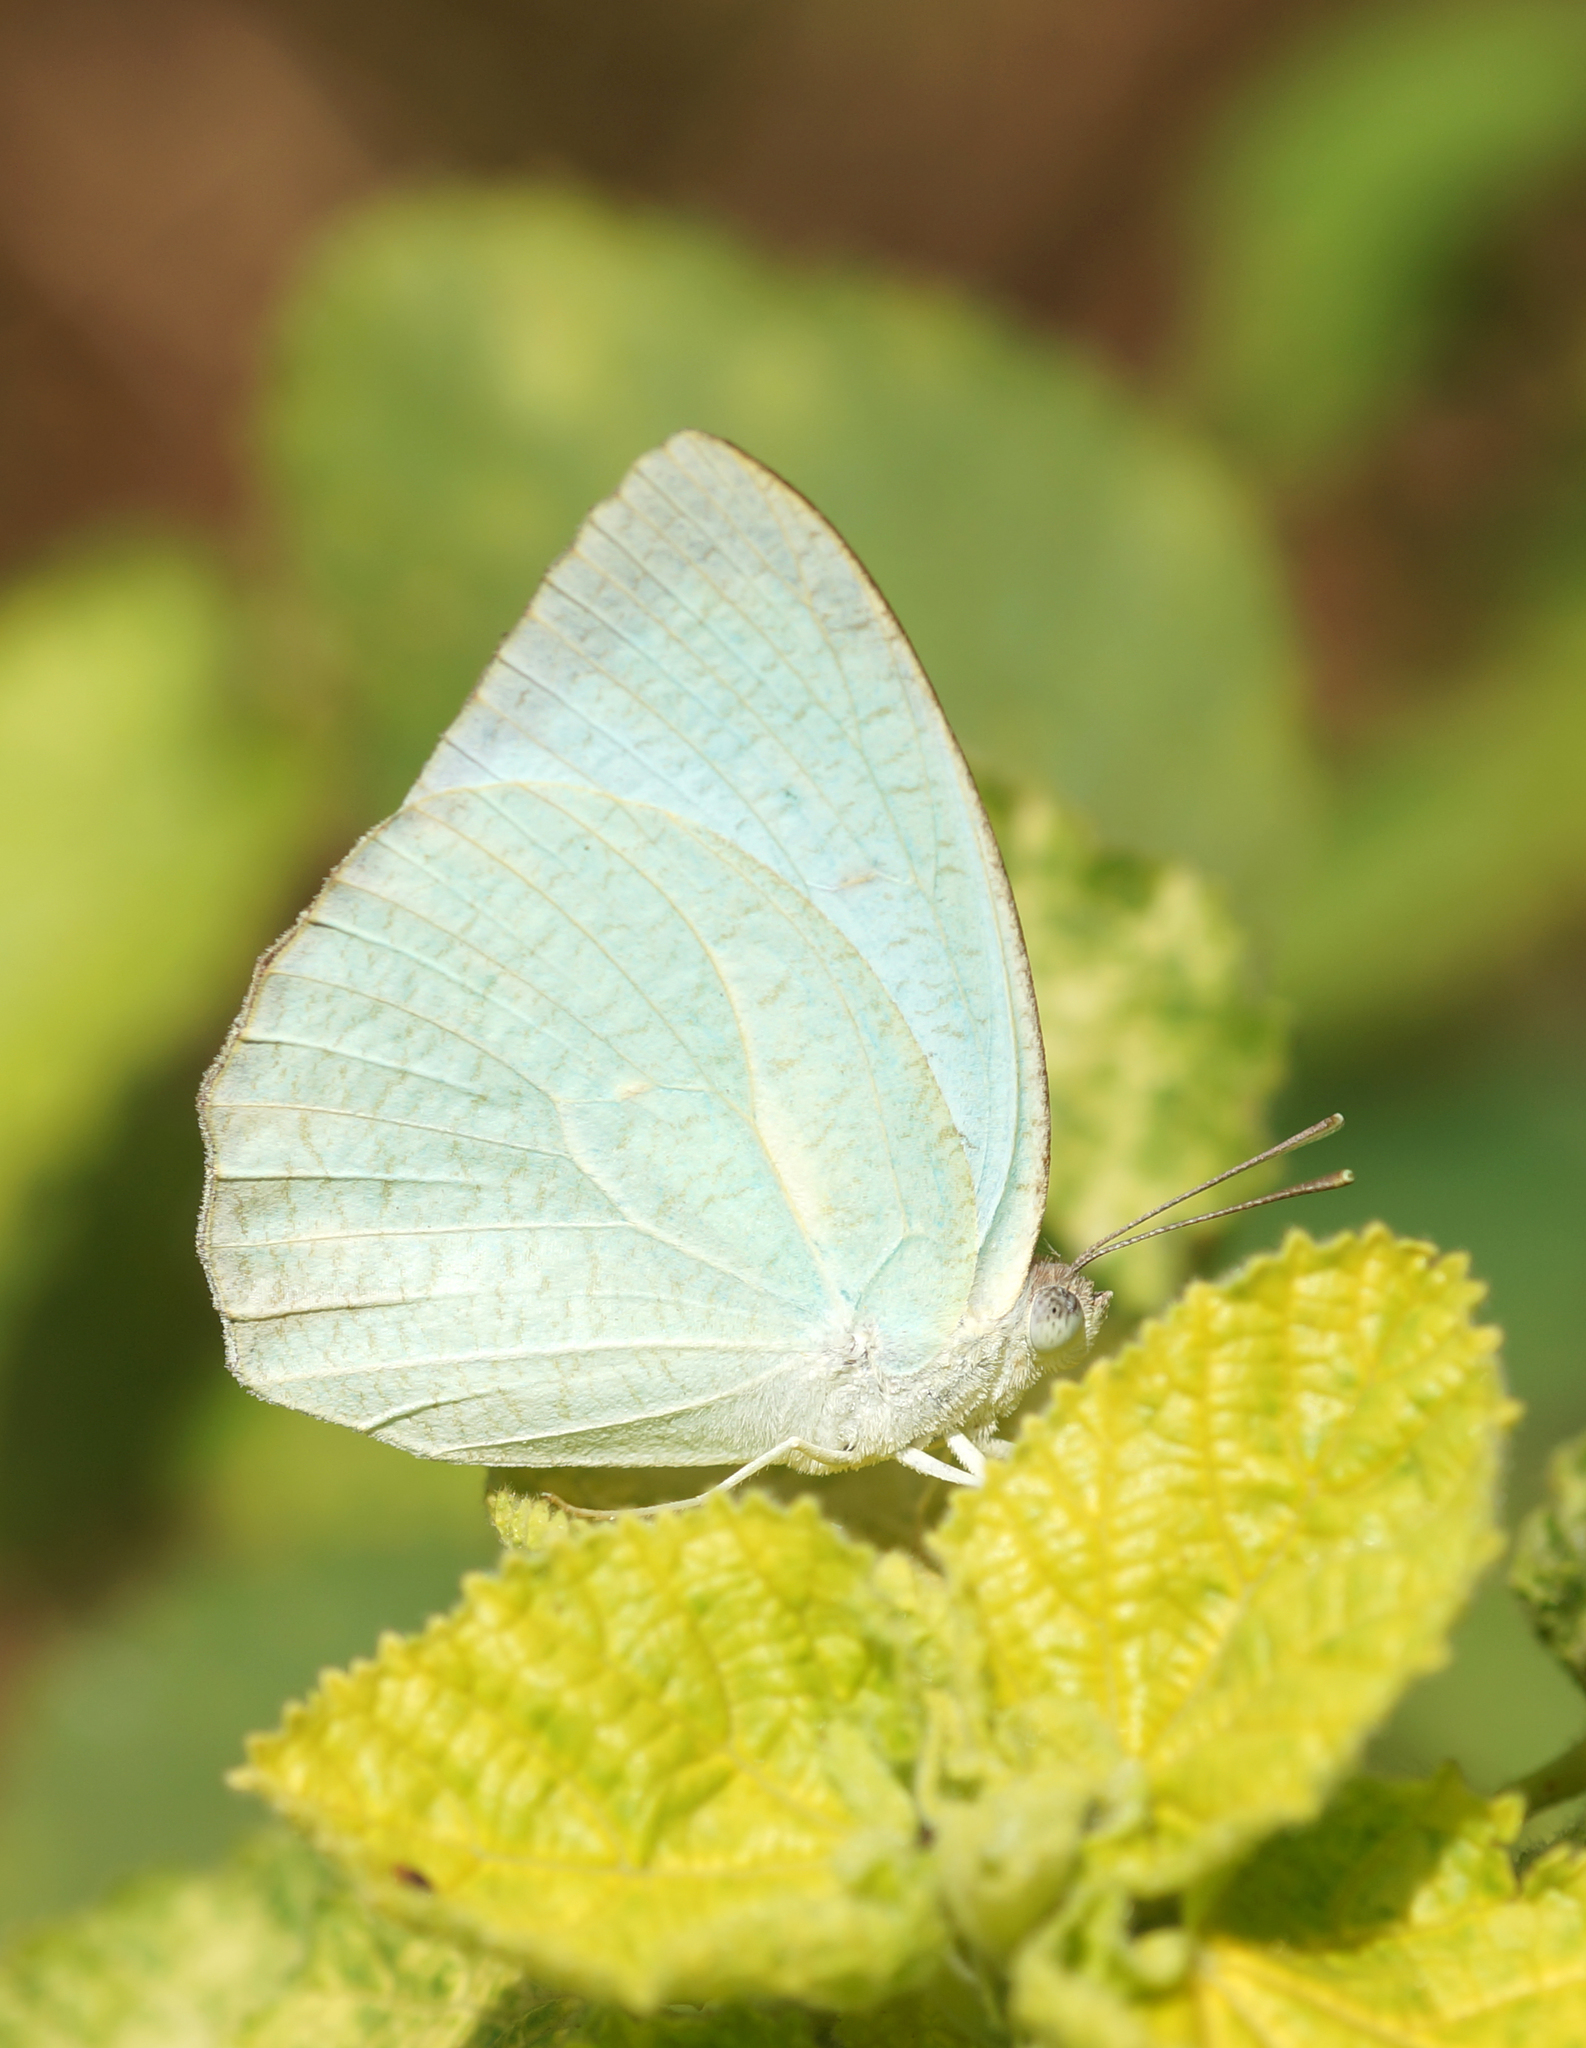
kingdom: Animalia
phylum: Arthropoda
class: Insecta
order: Lepidoptera
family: Pieridae
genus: Catopsilia
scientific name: Catopsilia pyranthe
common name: Mottled emigrant
